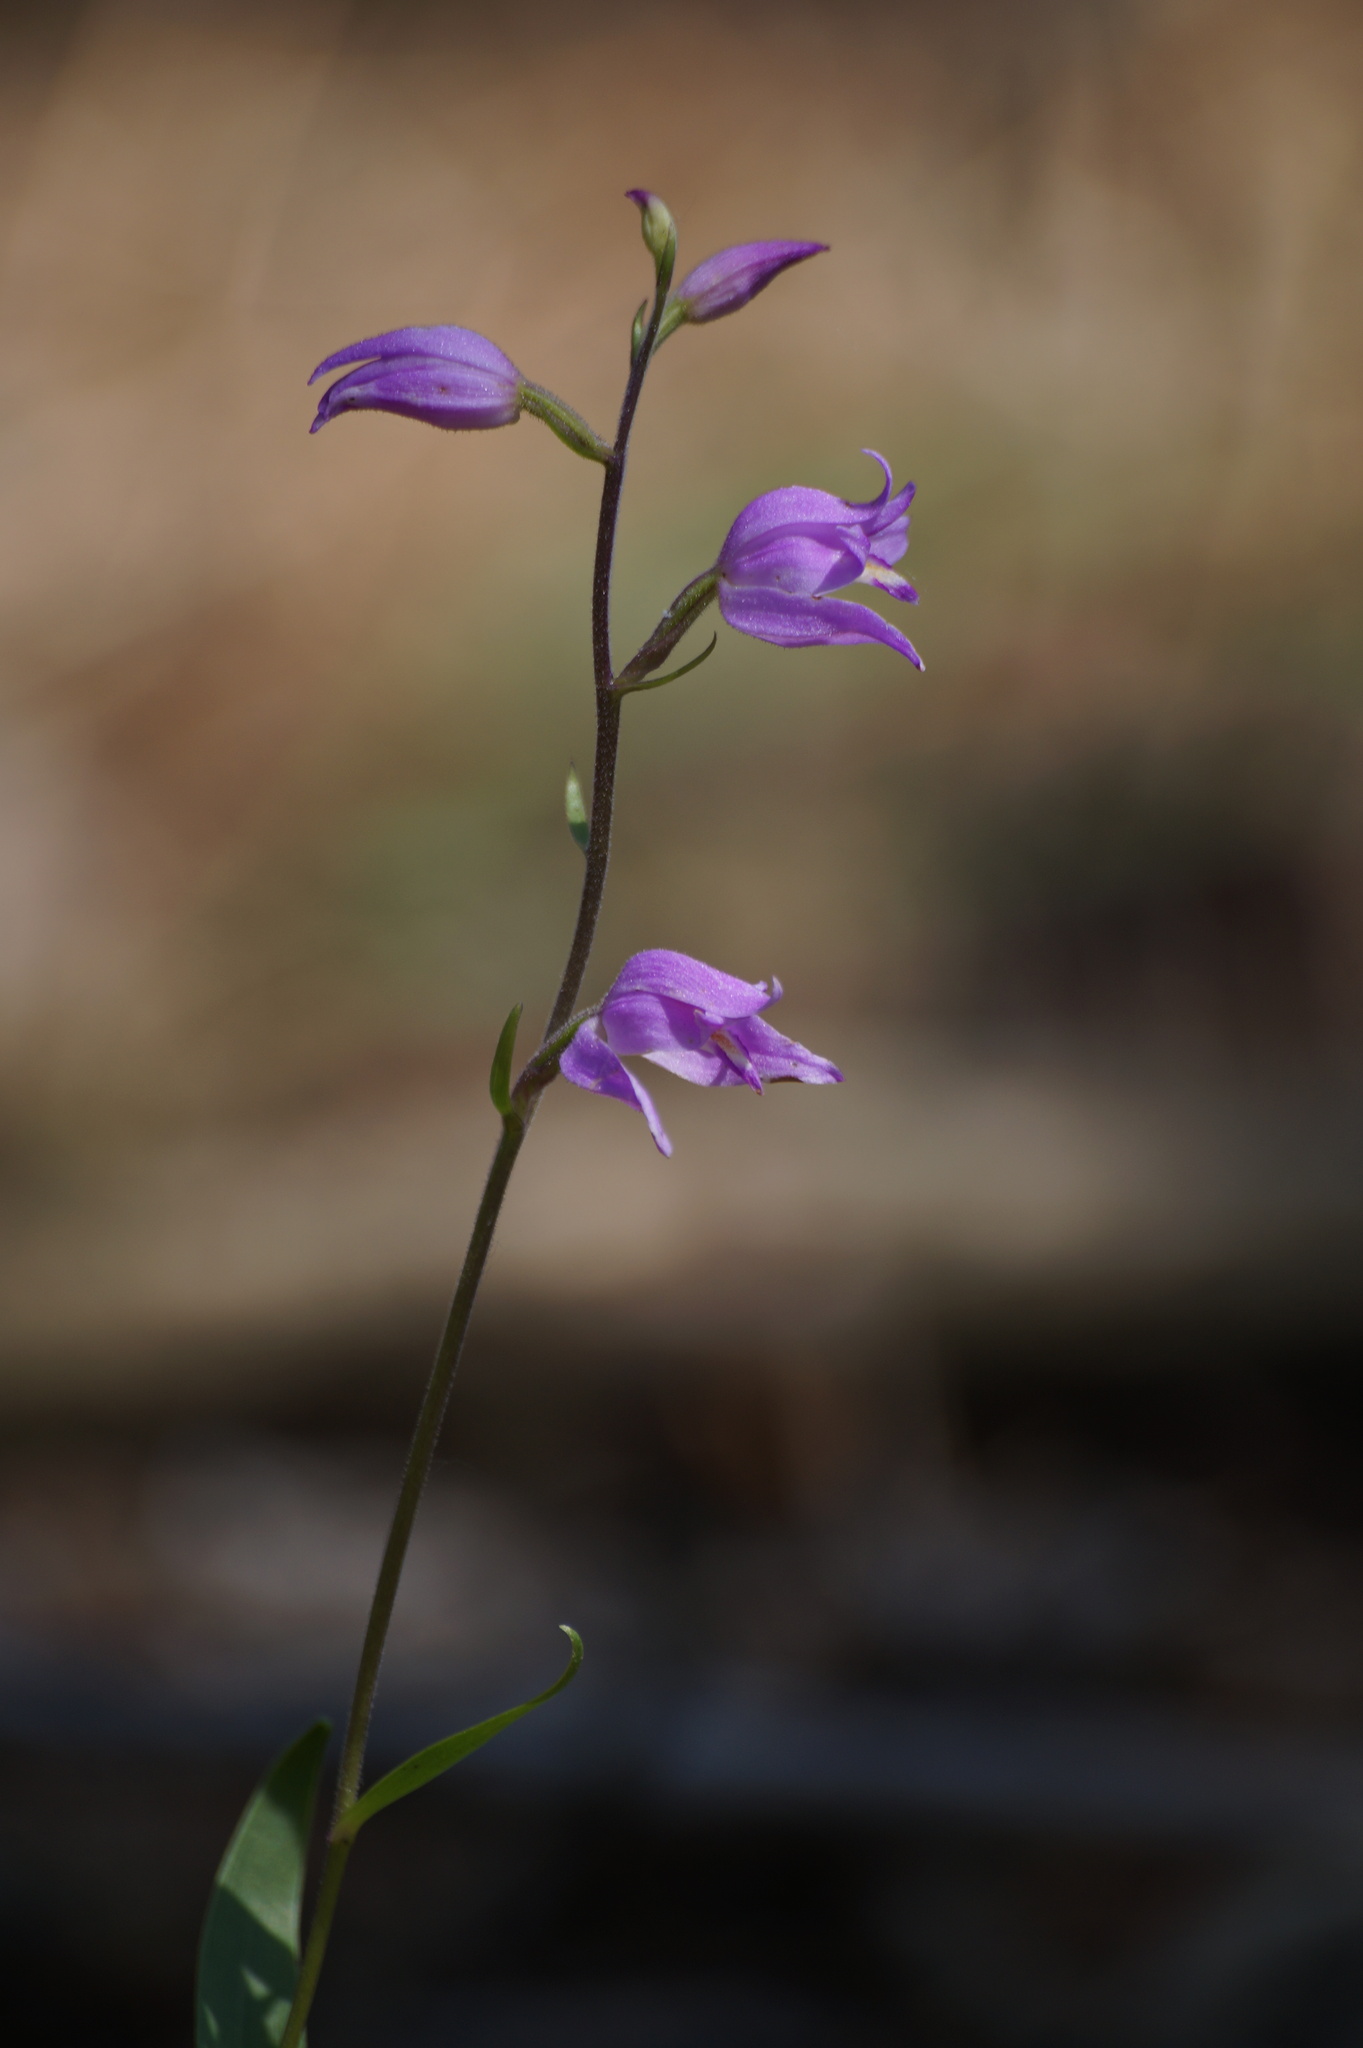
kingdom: Plantae
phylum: Tracheophyta
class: Liliopsida
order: Asparagales
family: Orchidaceae
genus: Cephalanthera
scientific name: Cephalanthera rubra
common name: Red helleborine
